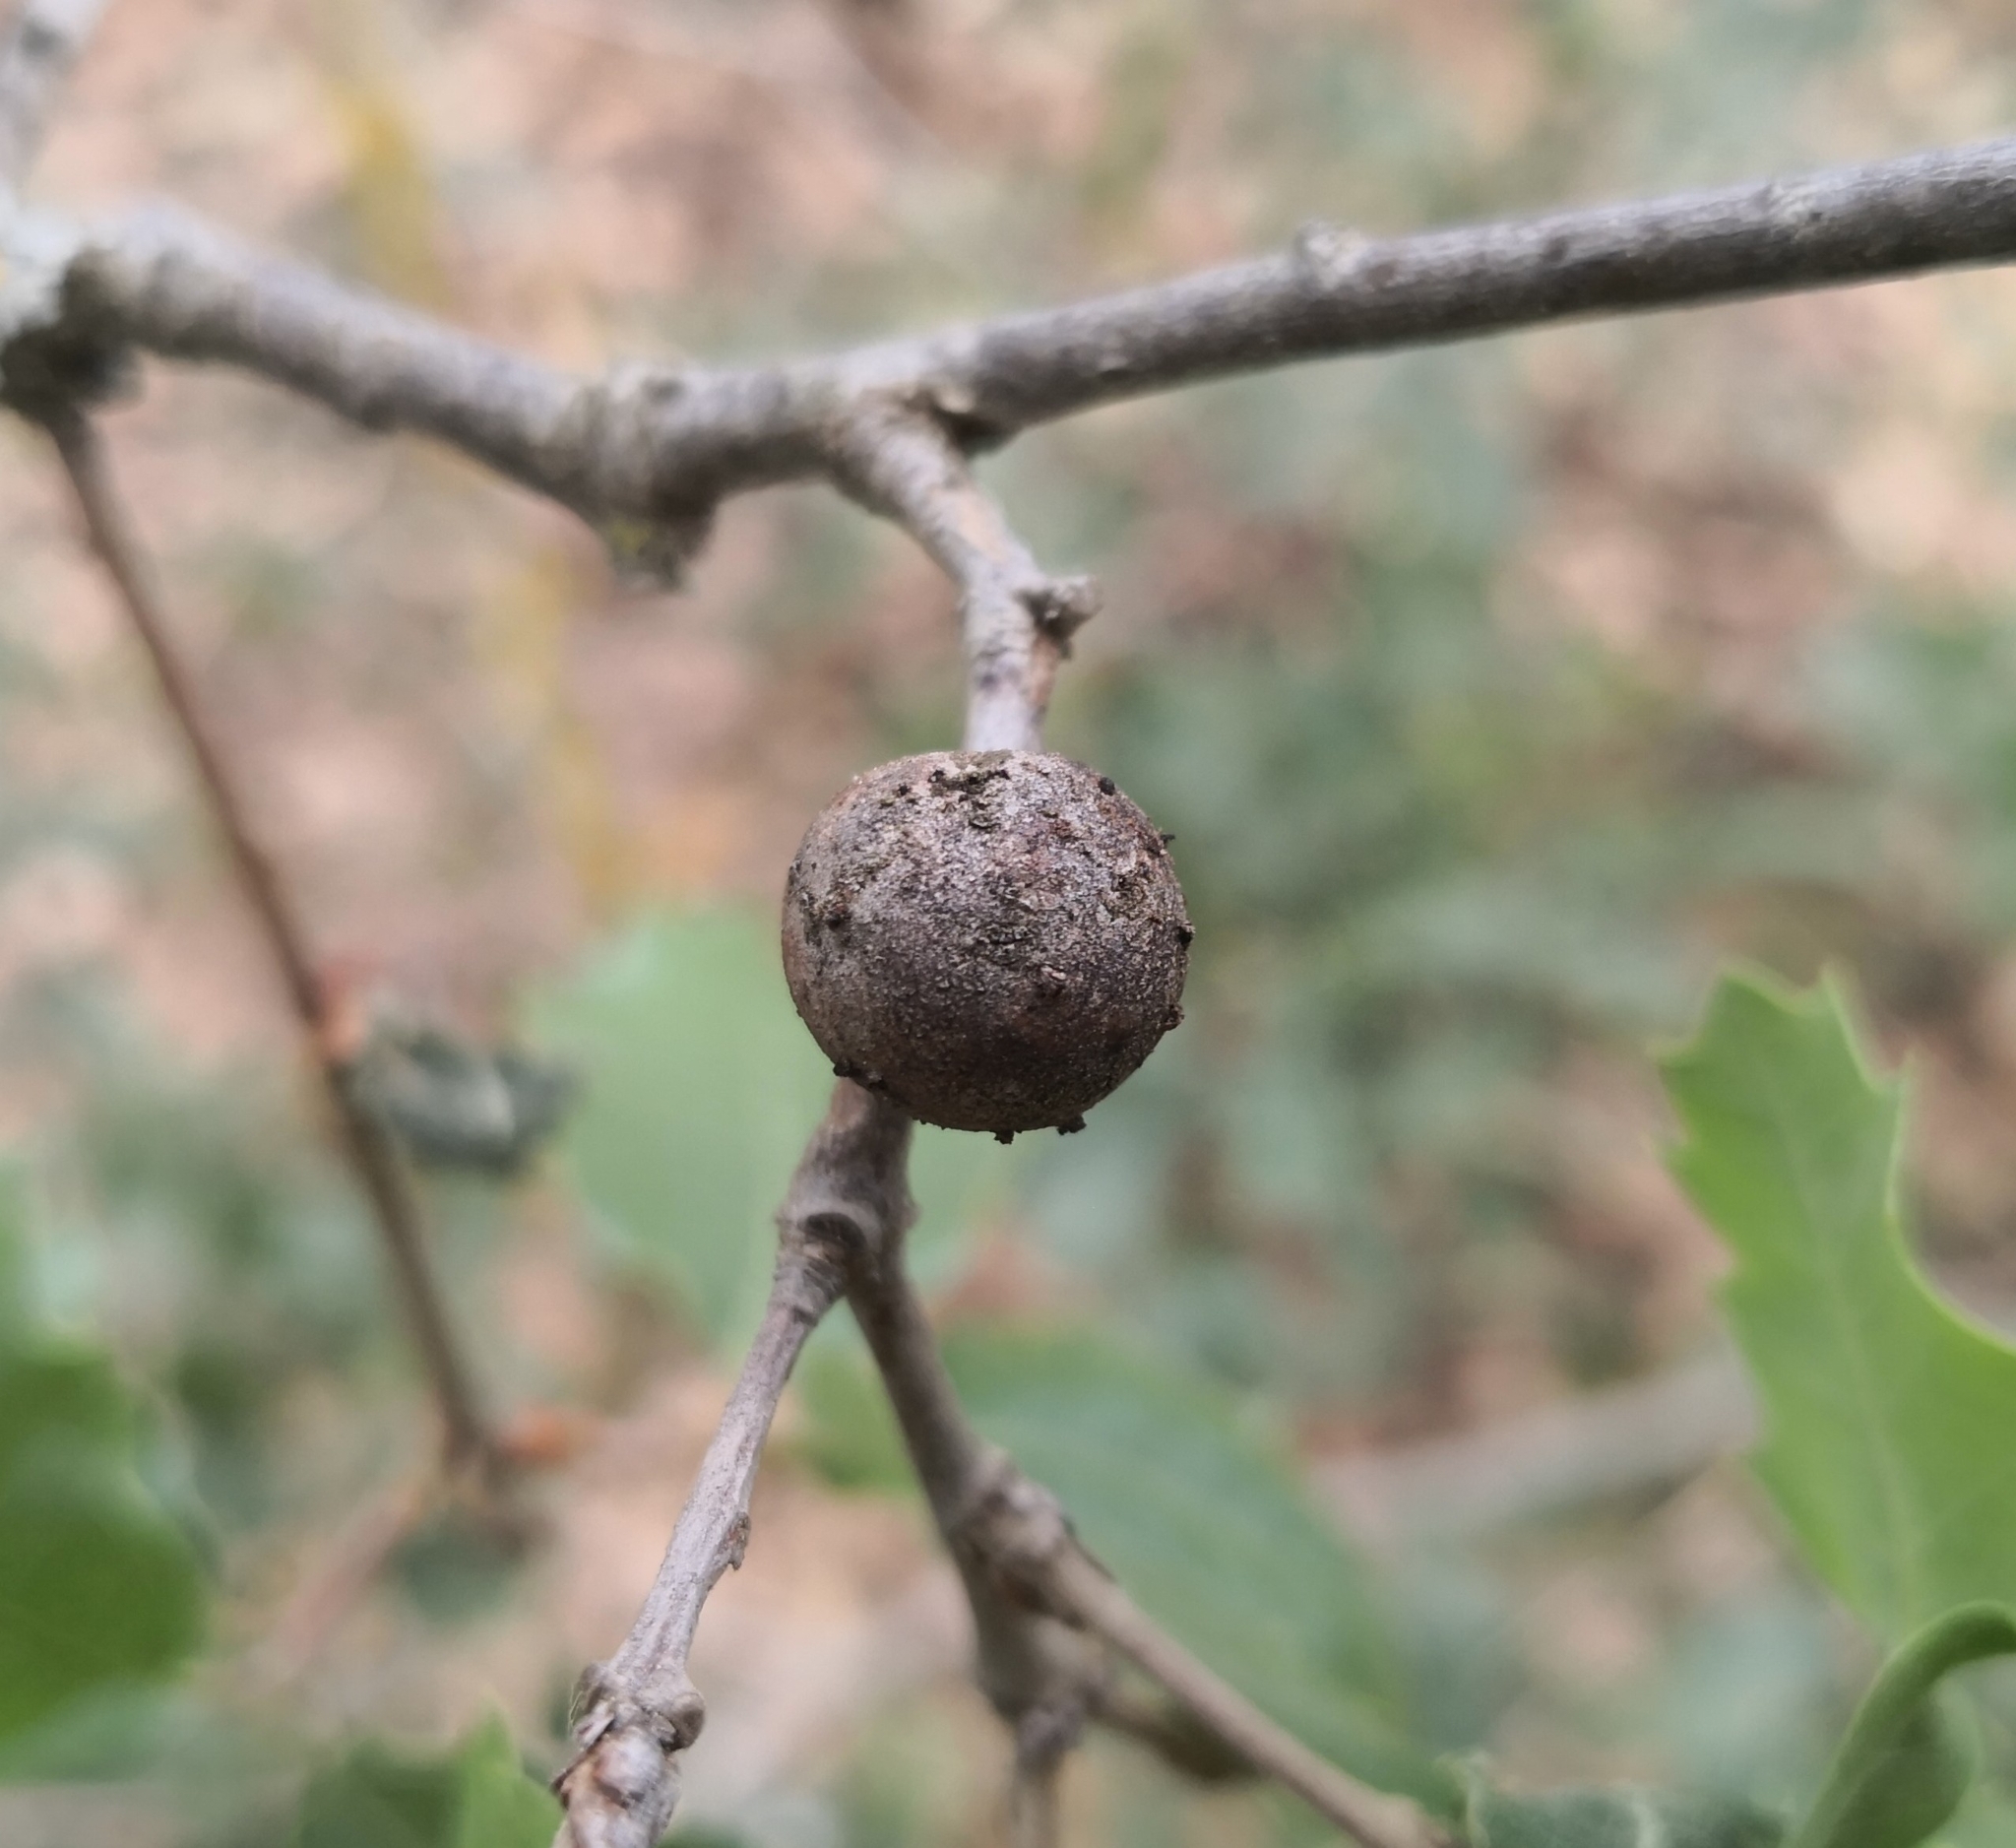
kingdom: Animalia
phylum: Arthropoda
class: Insecta
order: Hymenoptera
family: Cynipidae
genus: Andricus
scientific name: Andricus quercustozae
